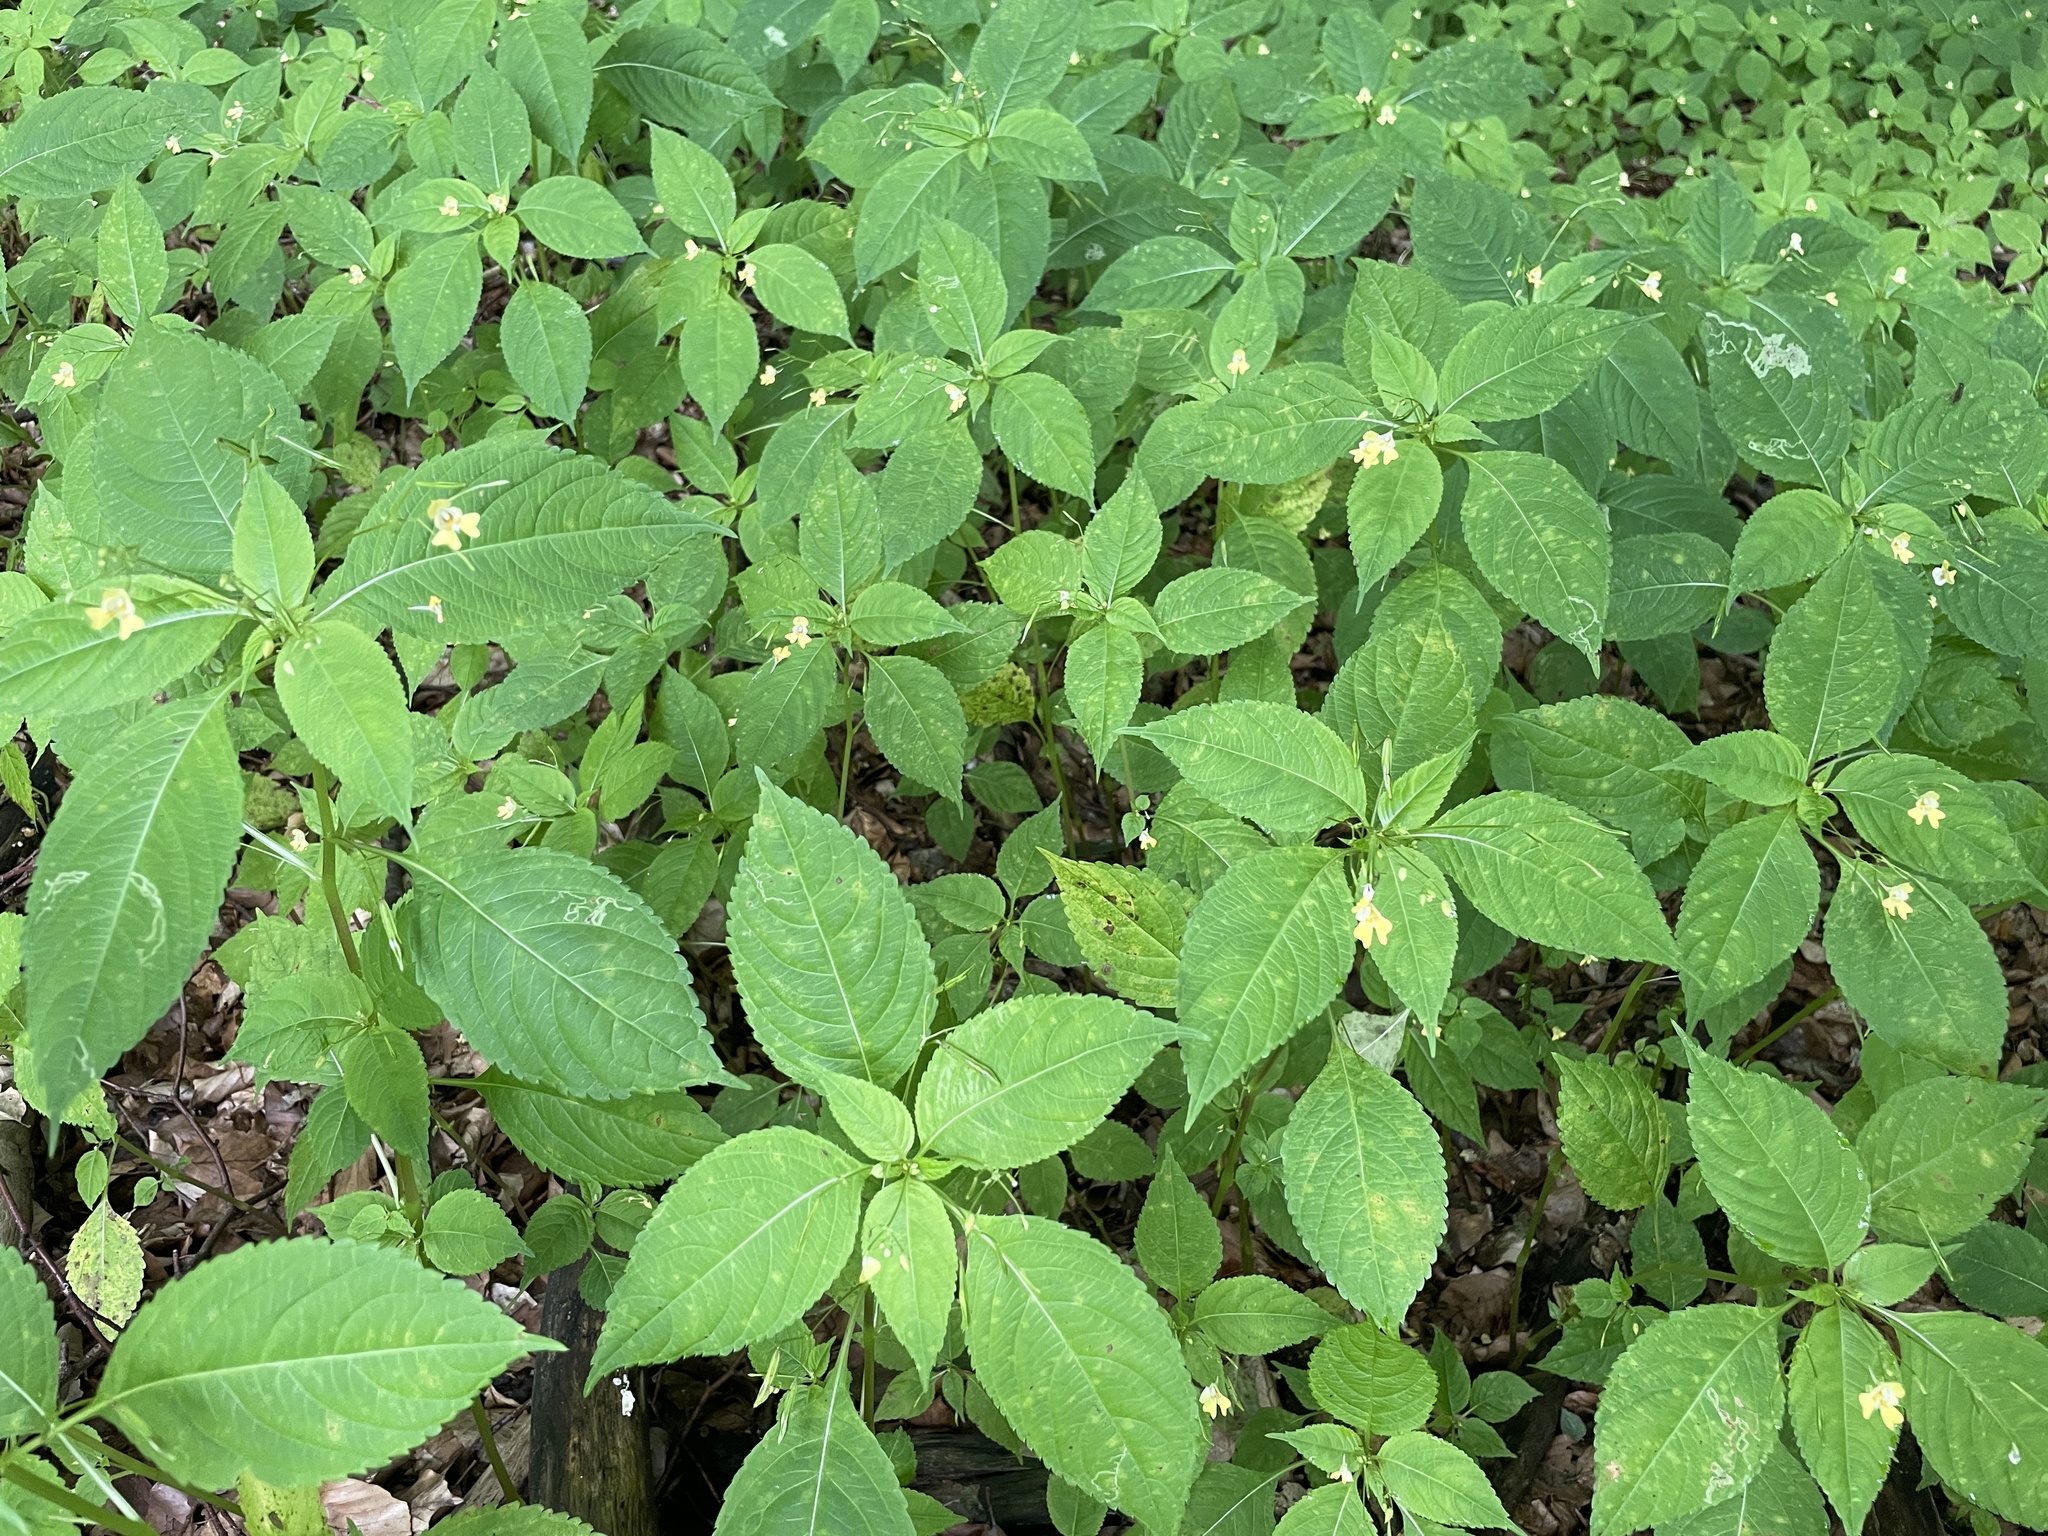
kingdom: Plantae
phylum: Tracheophyta
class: Magnoliopsida
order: Ericales
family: Balsaminaceae
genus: Impatiens
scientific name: Impatiens parviflora
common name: Small balsam
